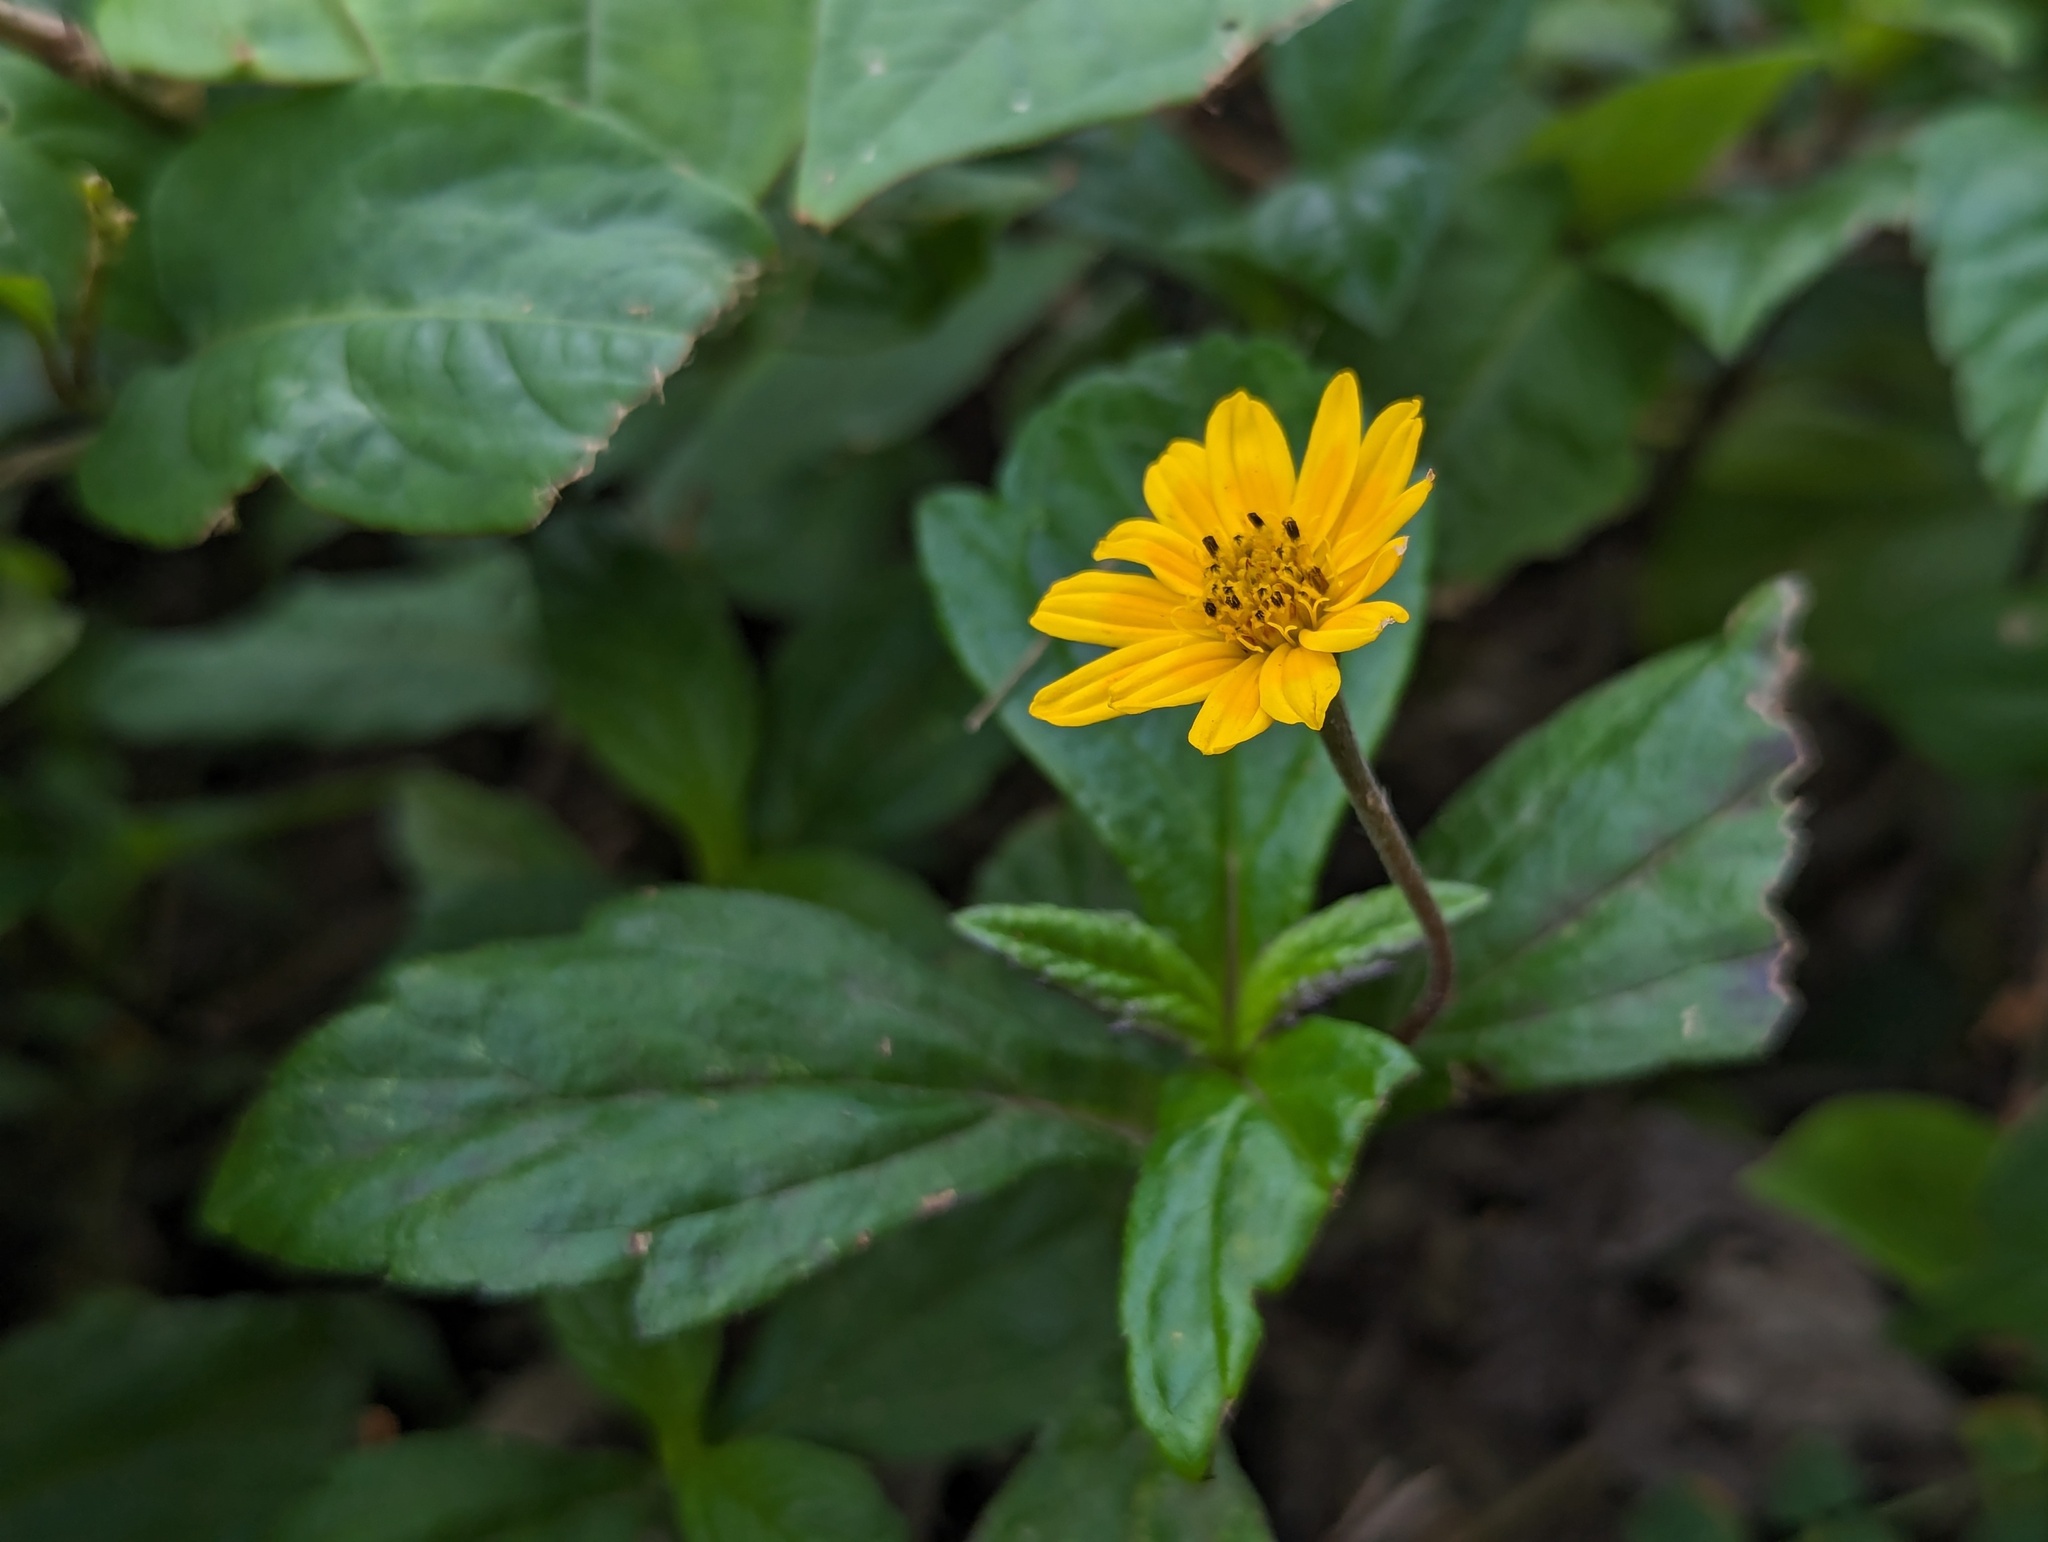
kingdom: Plantae
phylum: Tracheophyta
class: Magnoliopsida
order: Asterales
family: Asteraceae
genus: Sphagneticola
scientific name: Sphagneticola trilobata
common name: Bay biscayne creeping-oxeye
